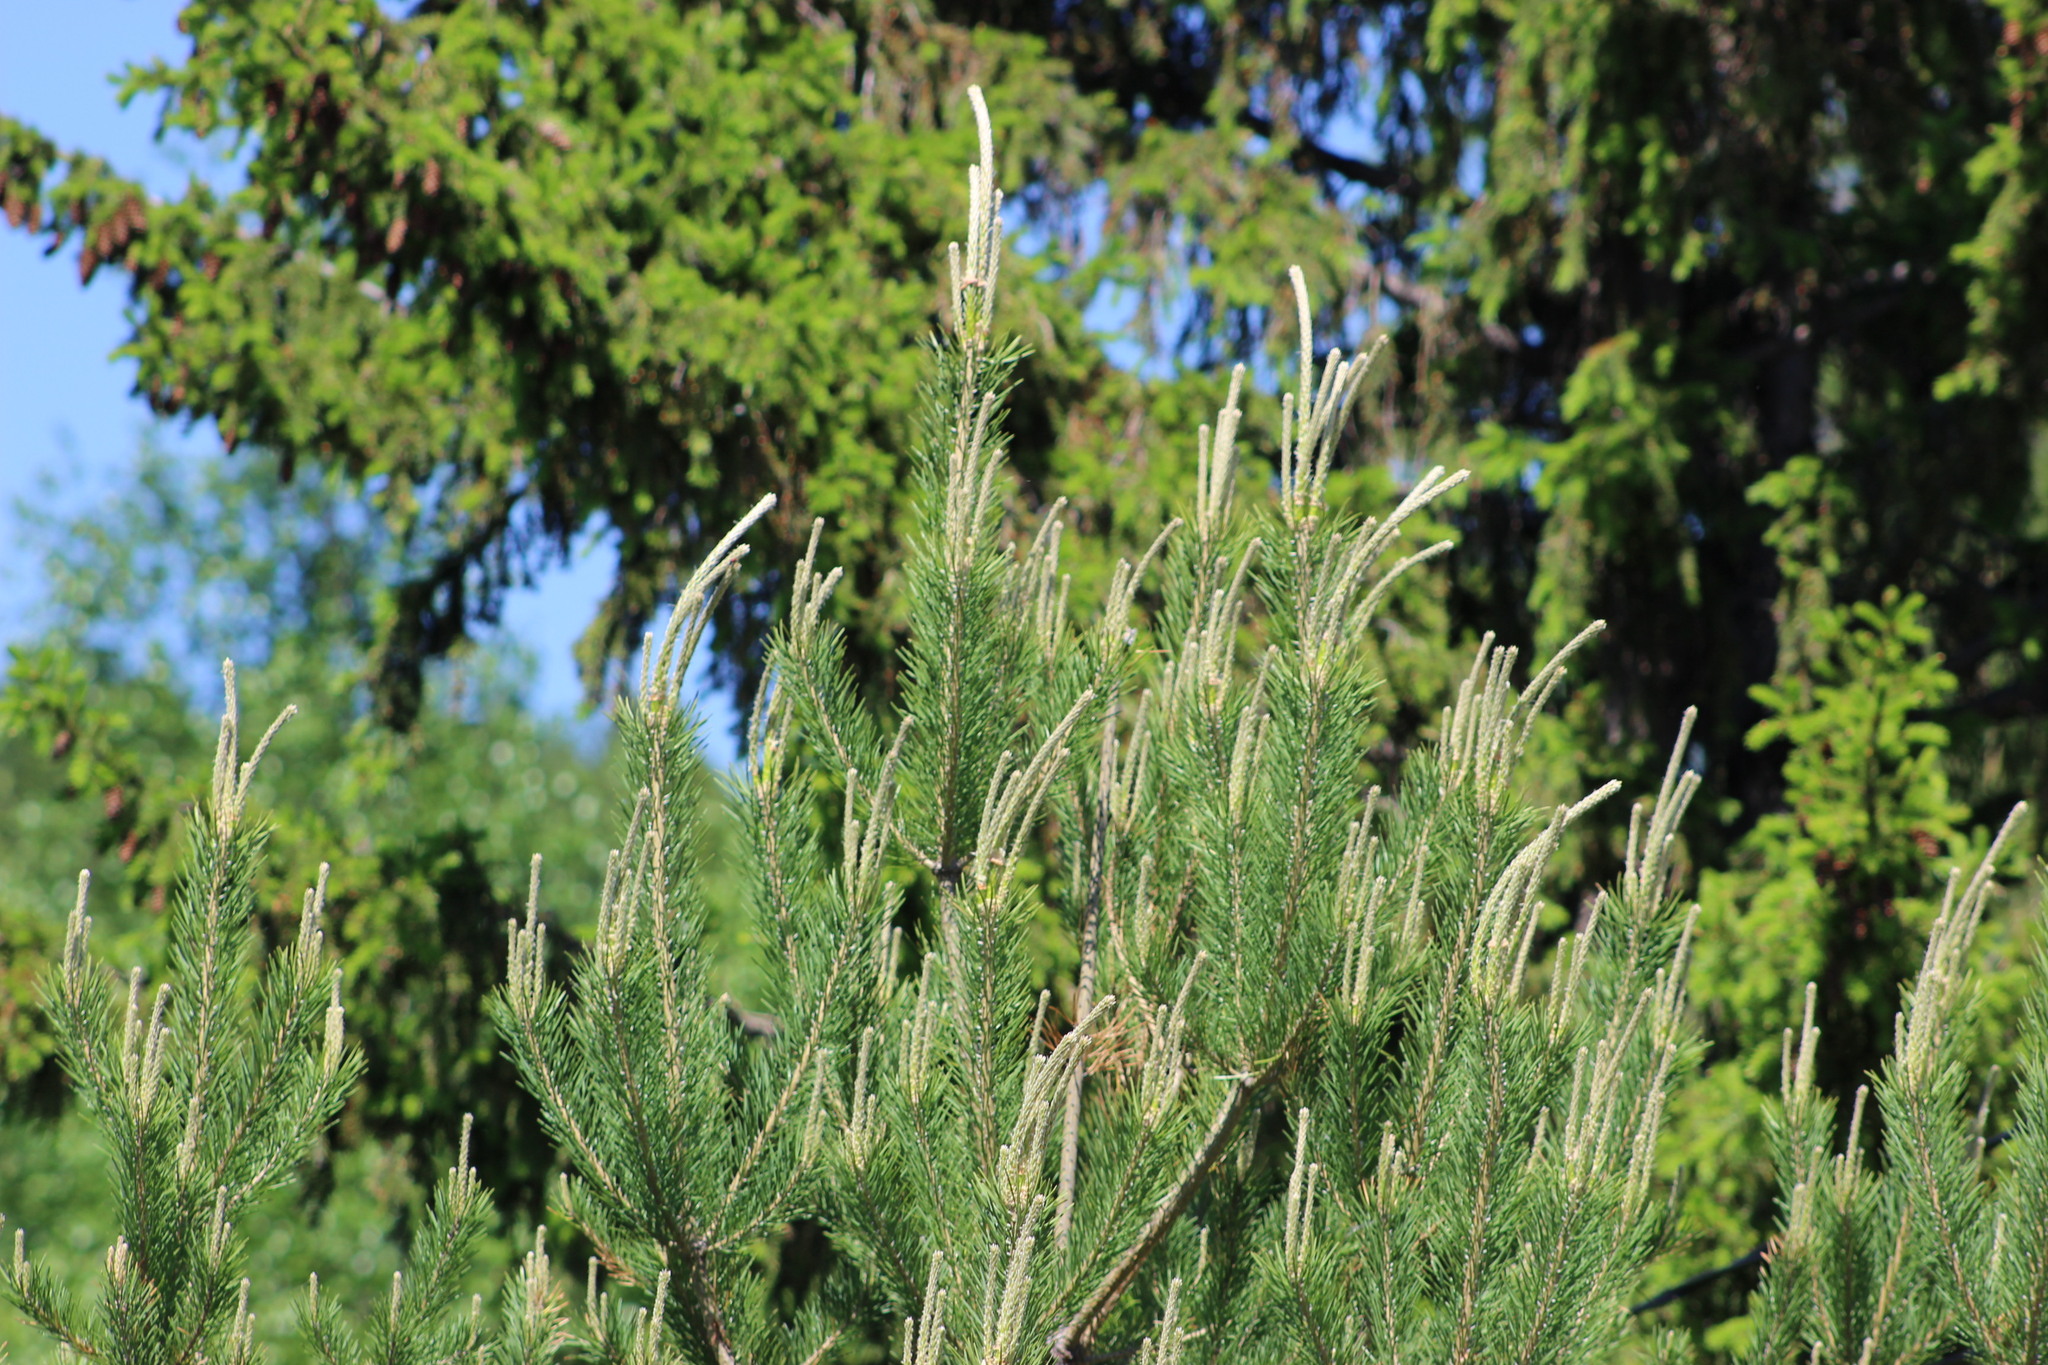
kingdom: Plantae
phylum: Tracheophyta
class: Pinopsida
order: Pinales
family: Pinaceae
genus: Pinus
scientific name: Pinus sylvestris
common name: Scots pine
